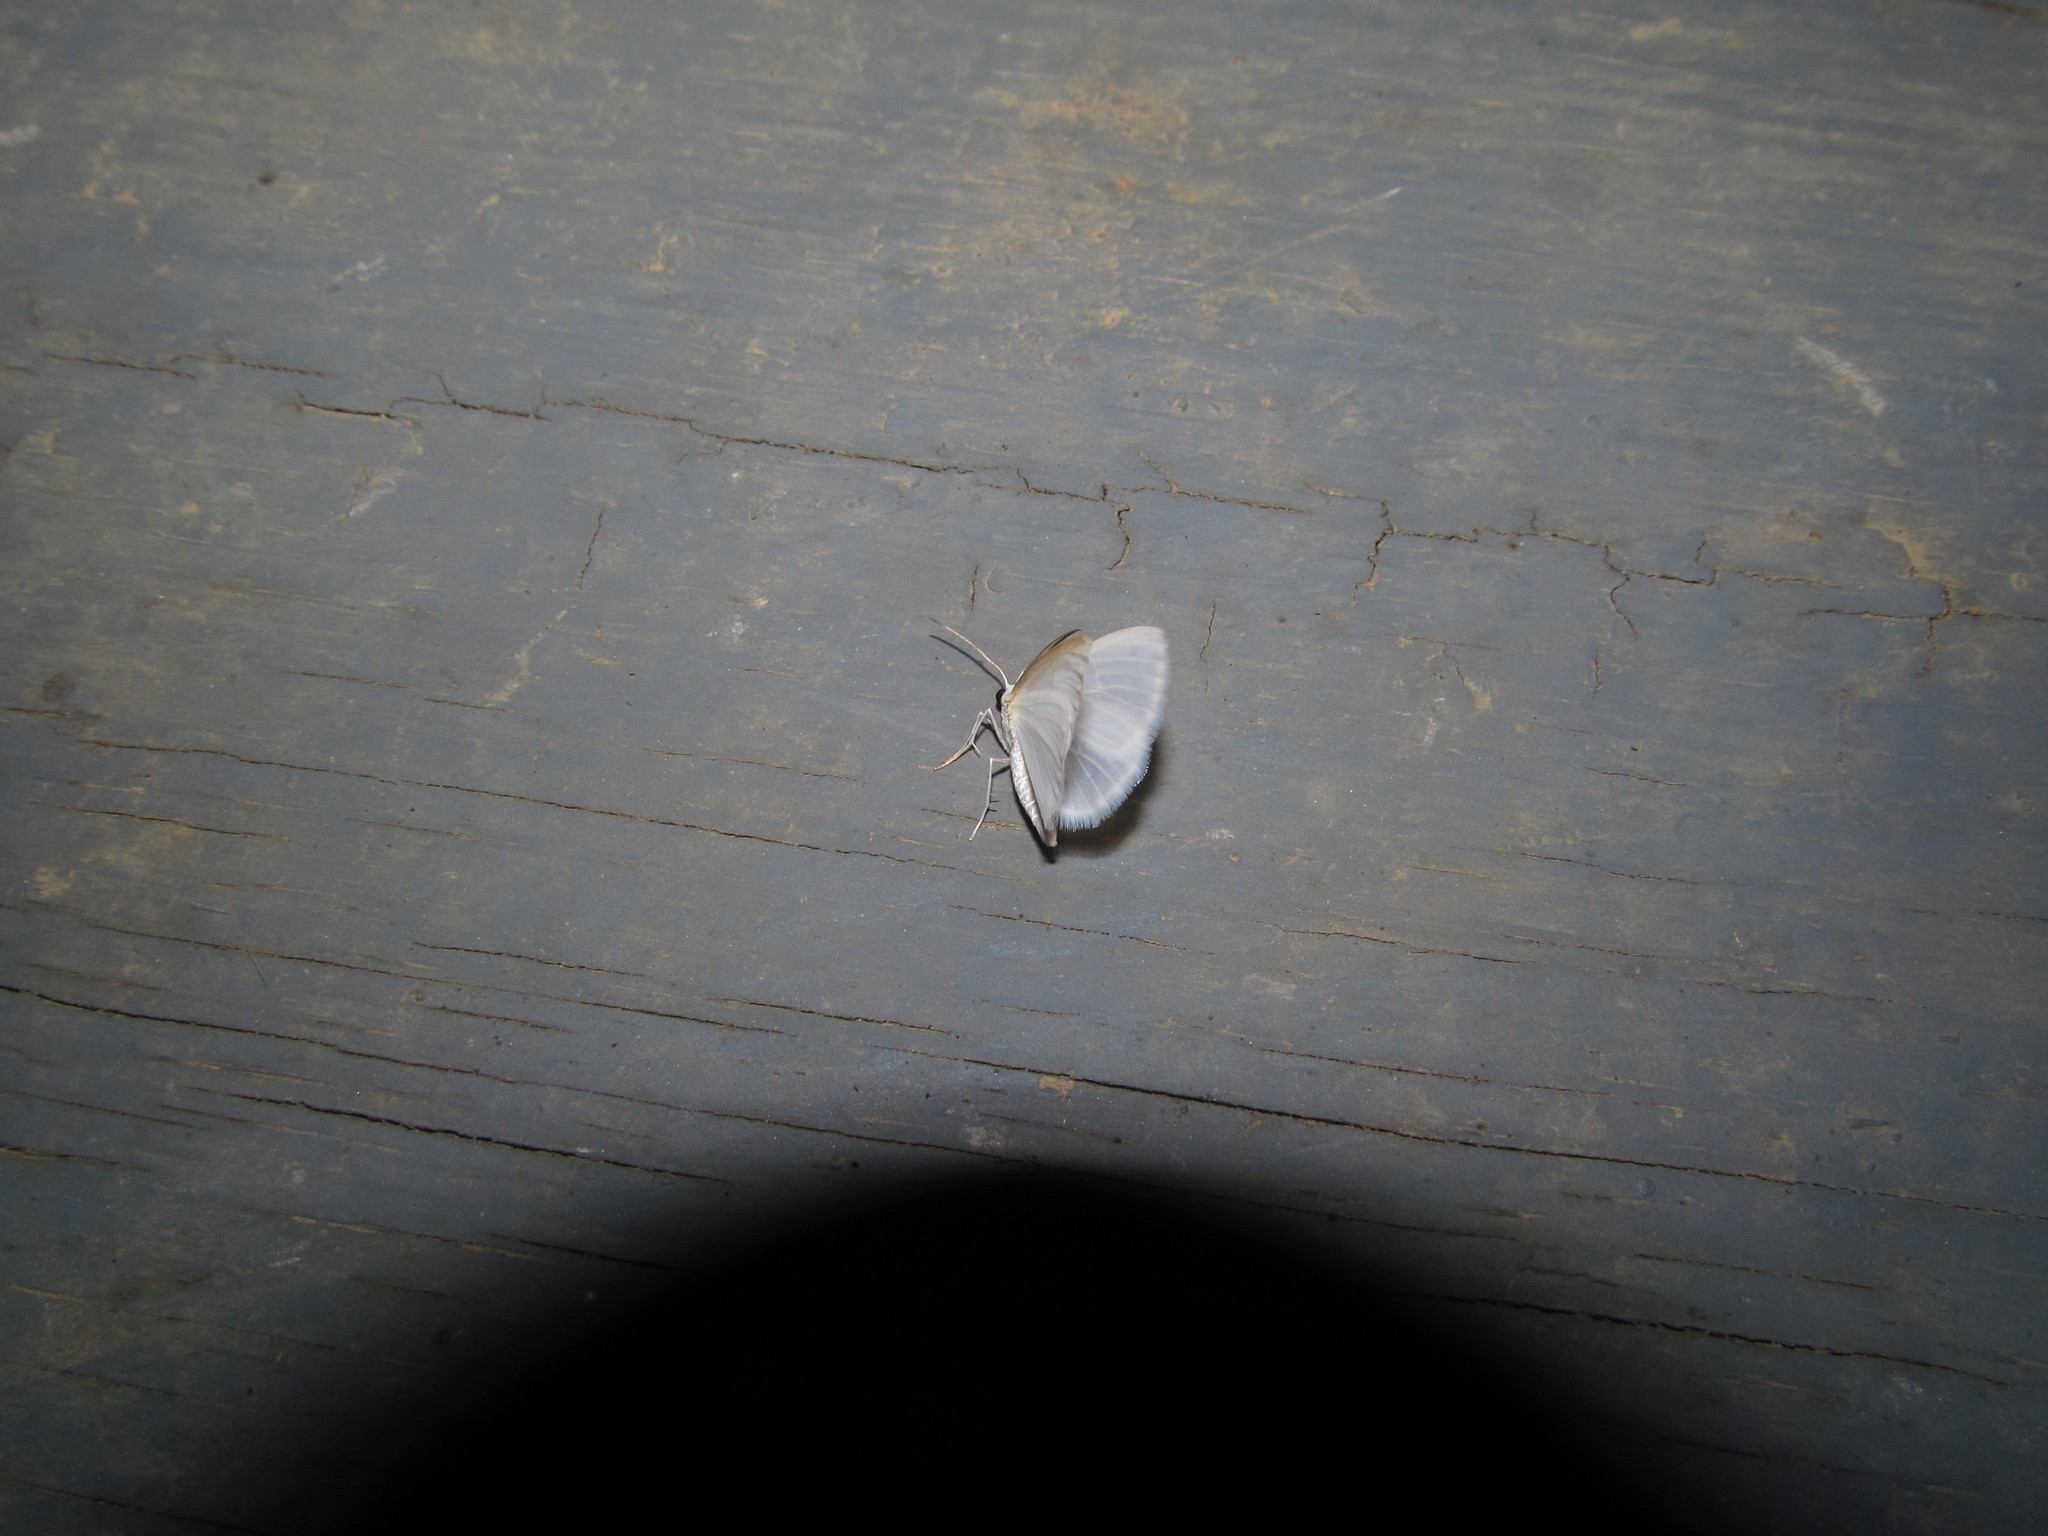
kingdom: Animalia
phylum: Arthropoda
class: Insecta
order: Lepidoptera
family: Geometridae
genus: Lomographa
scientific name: Lomographa vestaliata
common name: White spring moth
